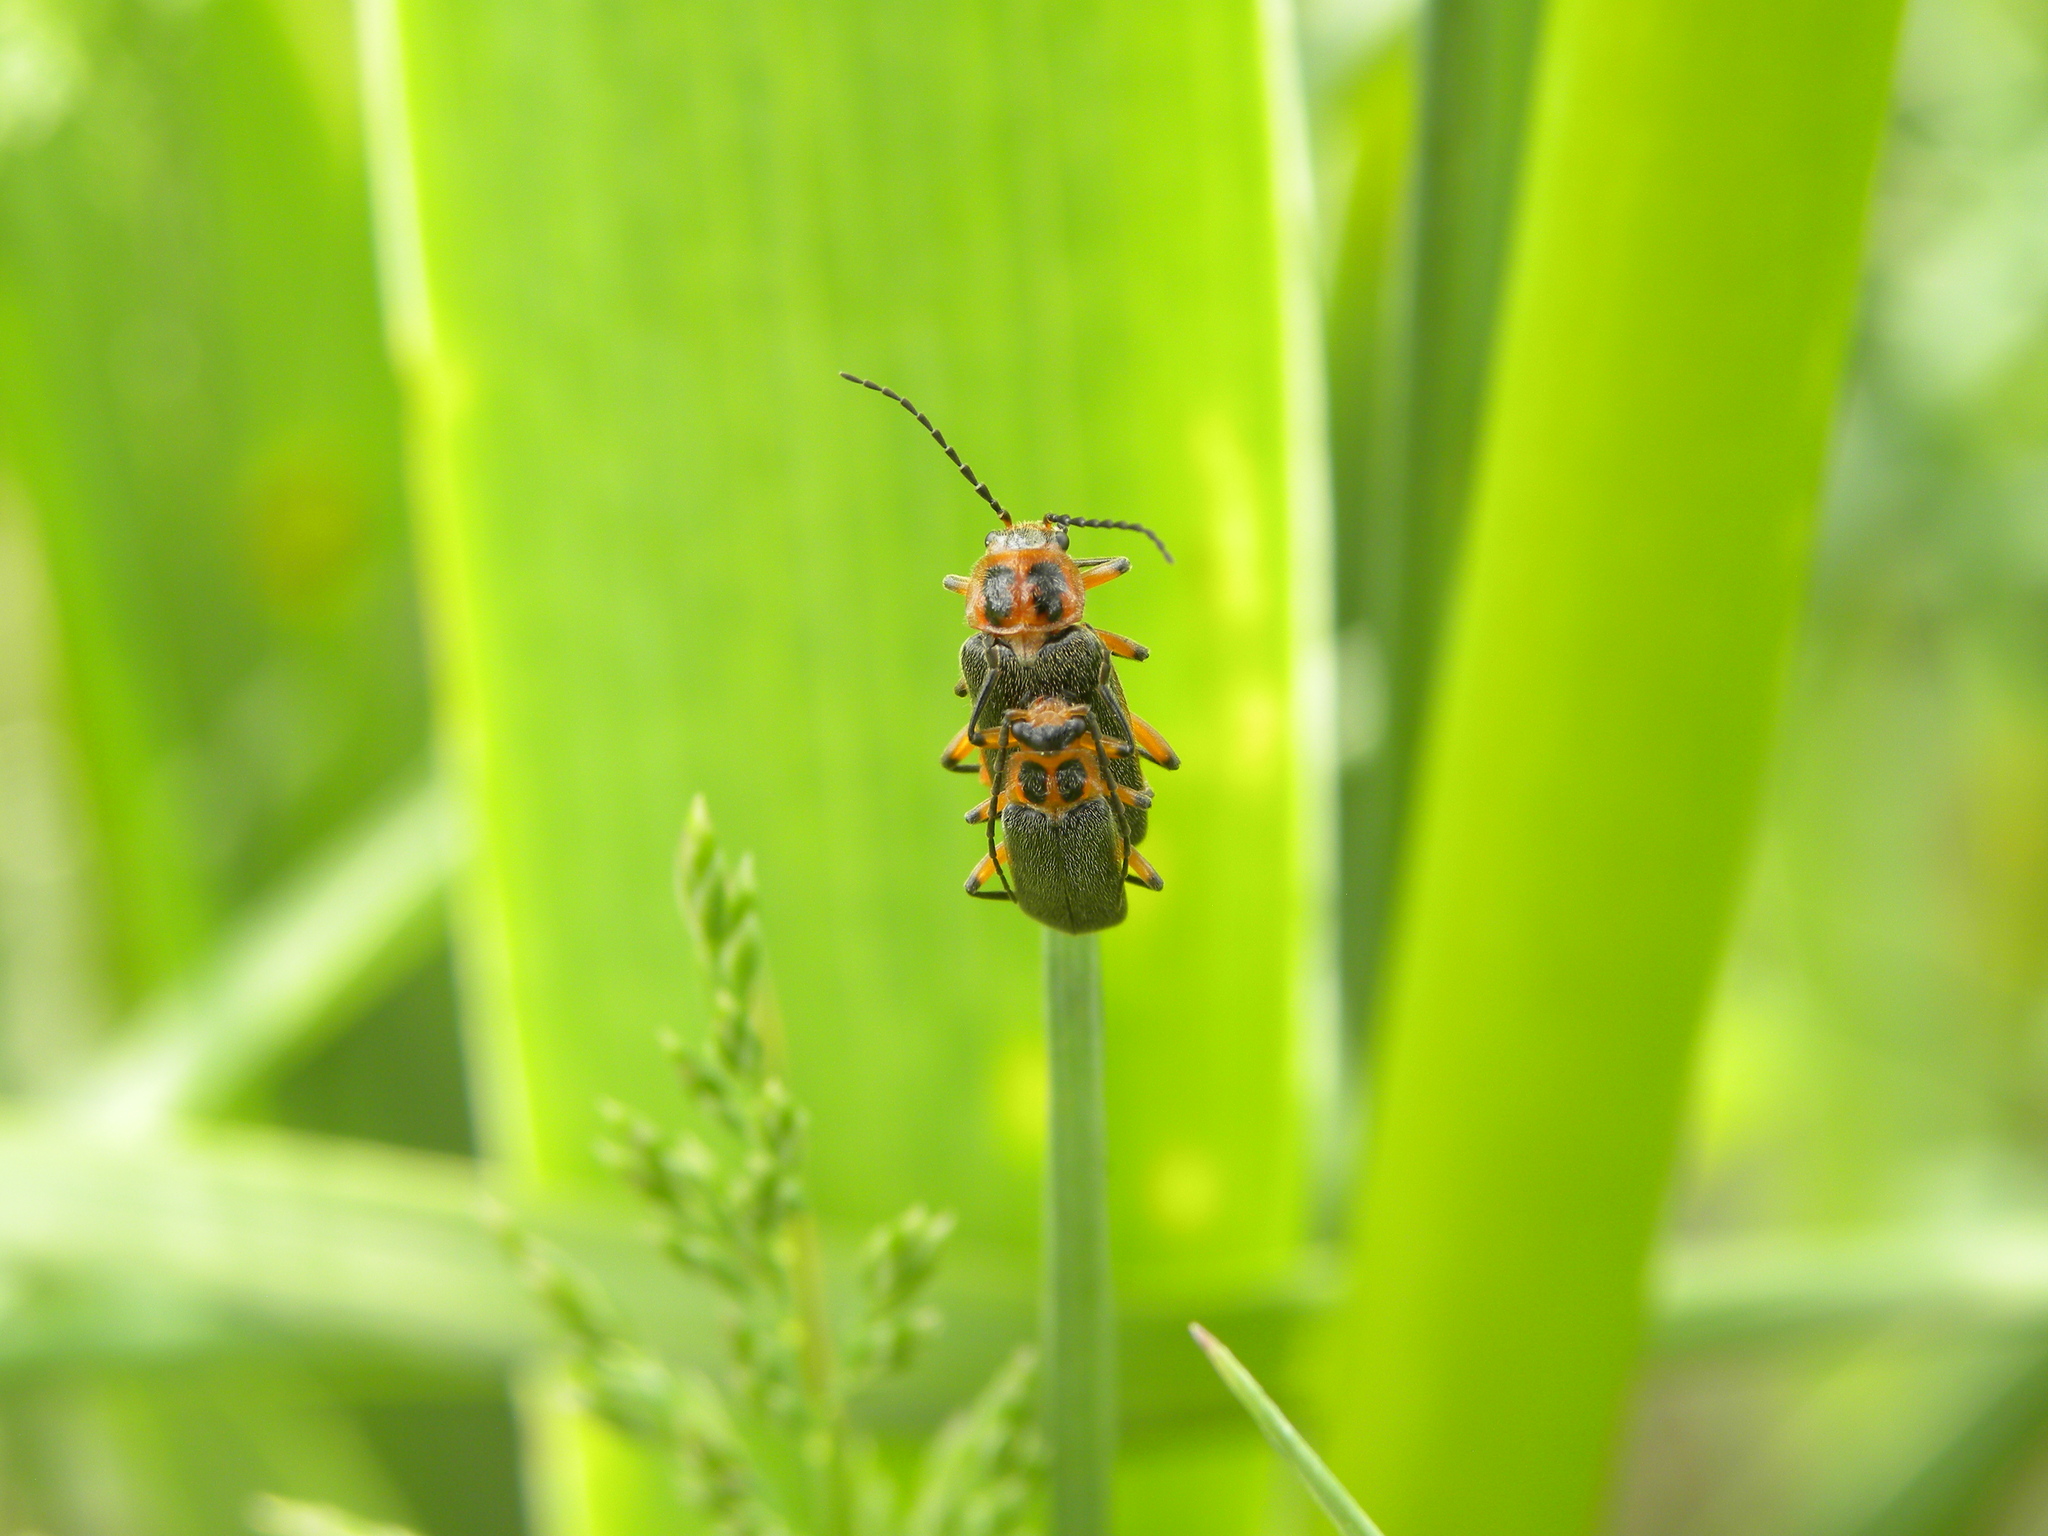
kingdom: Animalia
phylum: Arthropoda
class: Insecta
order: Coleoptera
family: Cantharidae
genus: Atalantycha
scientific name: Atalantycha bilineata
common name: Two-lined leatherwing
